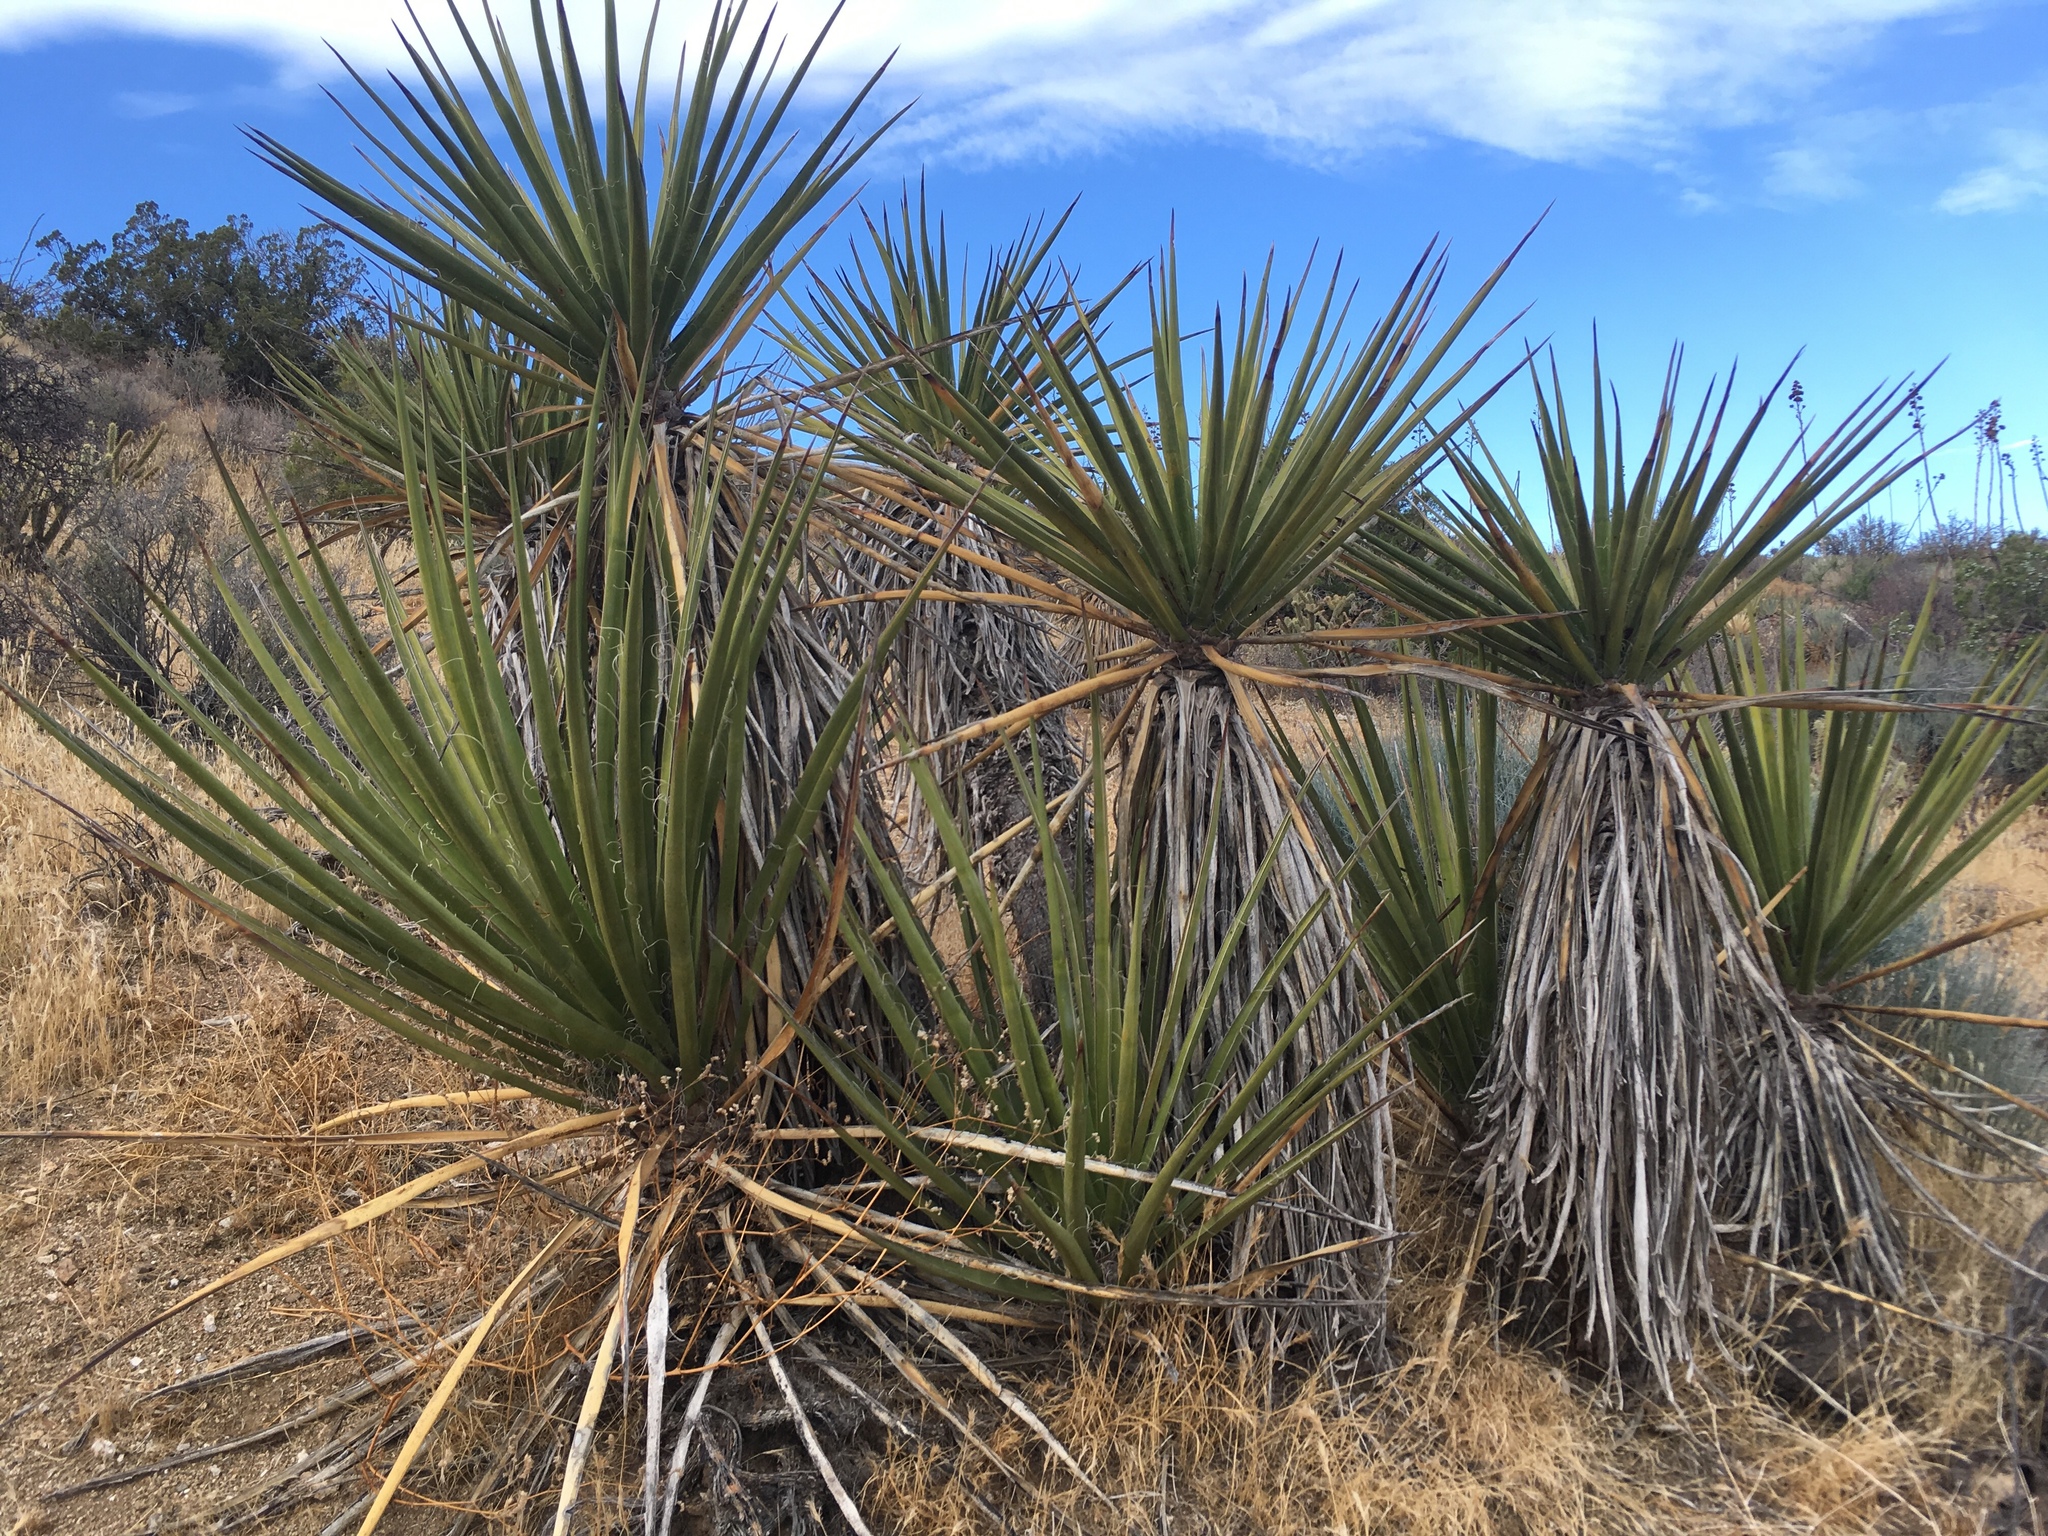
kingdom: Plantae
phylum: Tracheophyta
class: Liliopsida
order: Asparagales
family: Asparagaceae
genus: Yucca
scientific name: Yucca schidigera
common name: Mojave yucca
